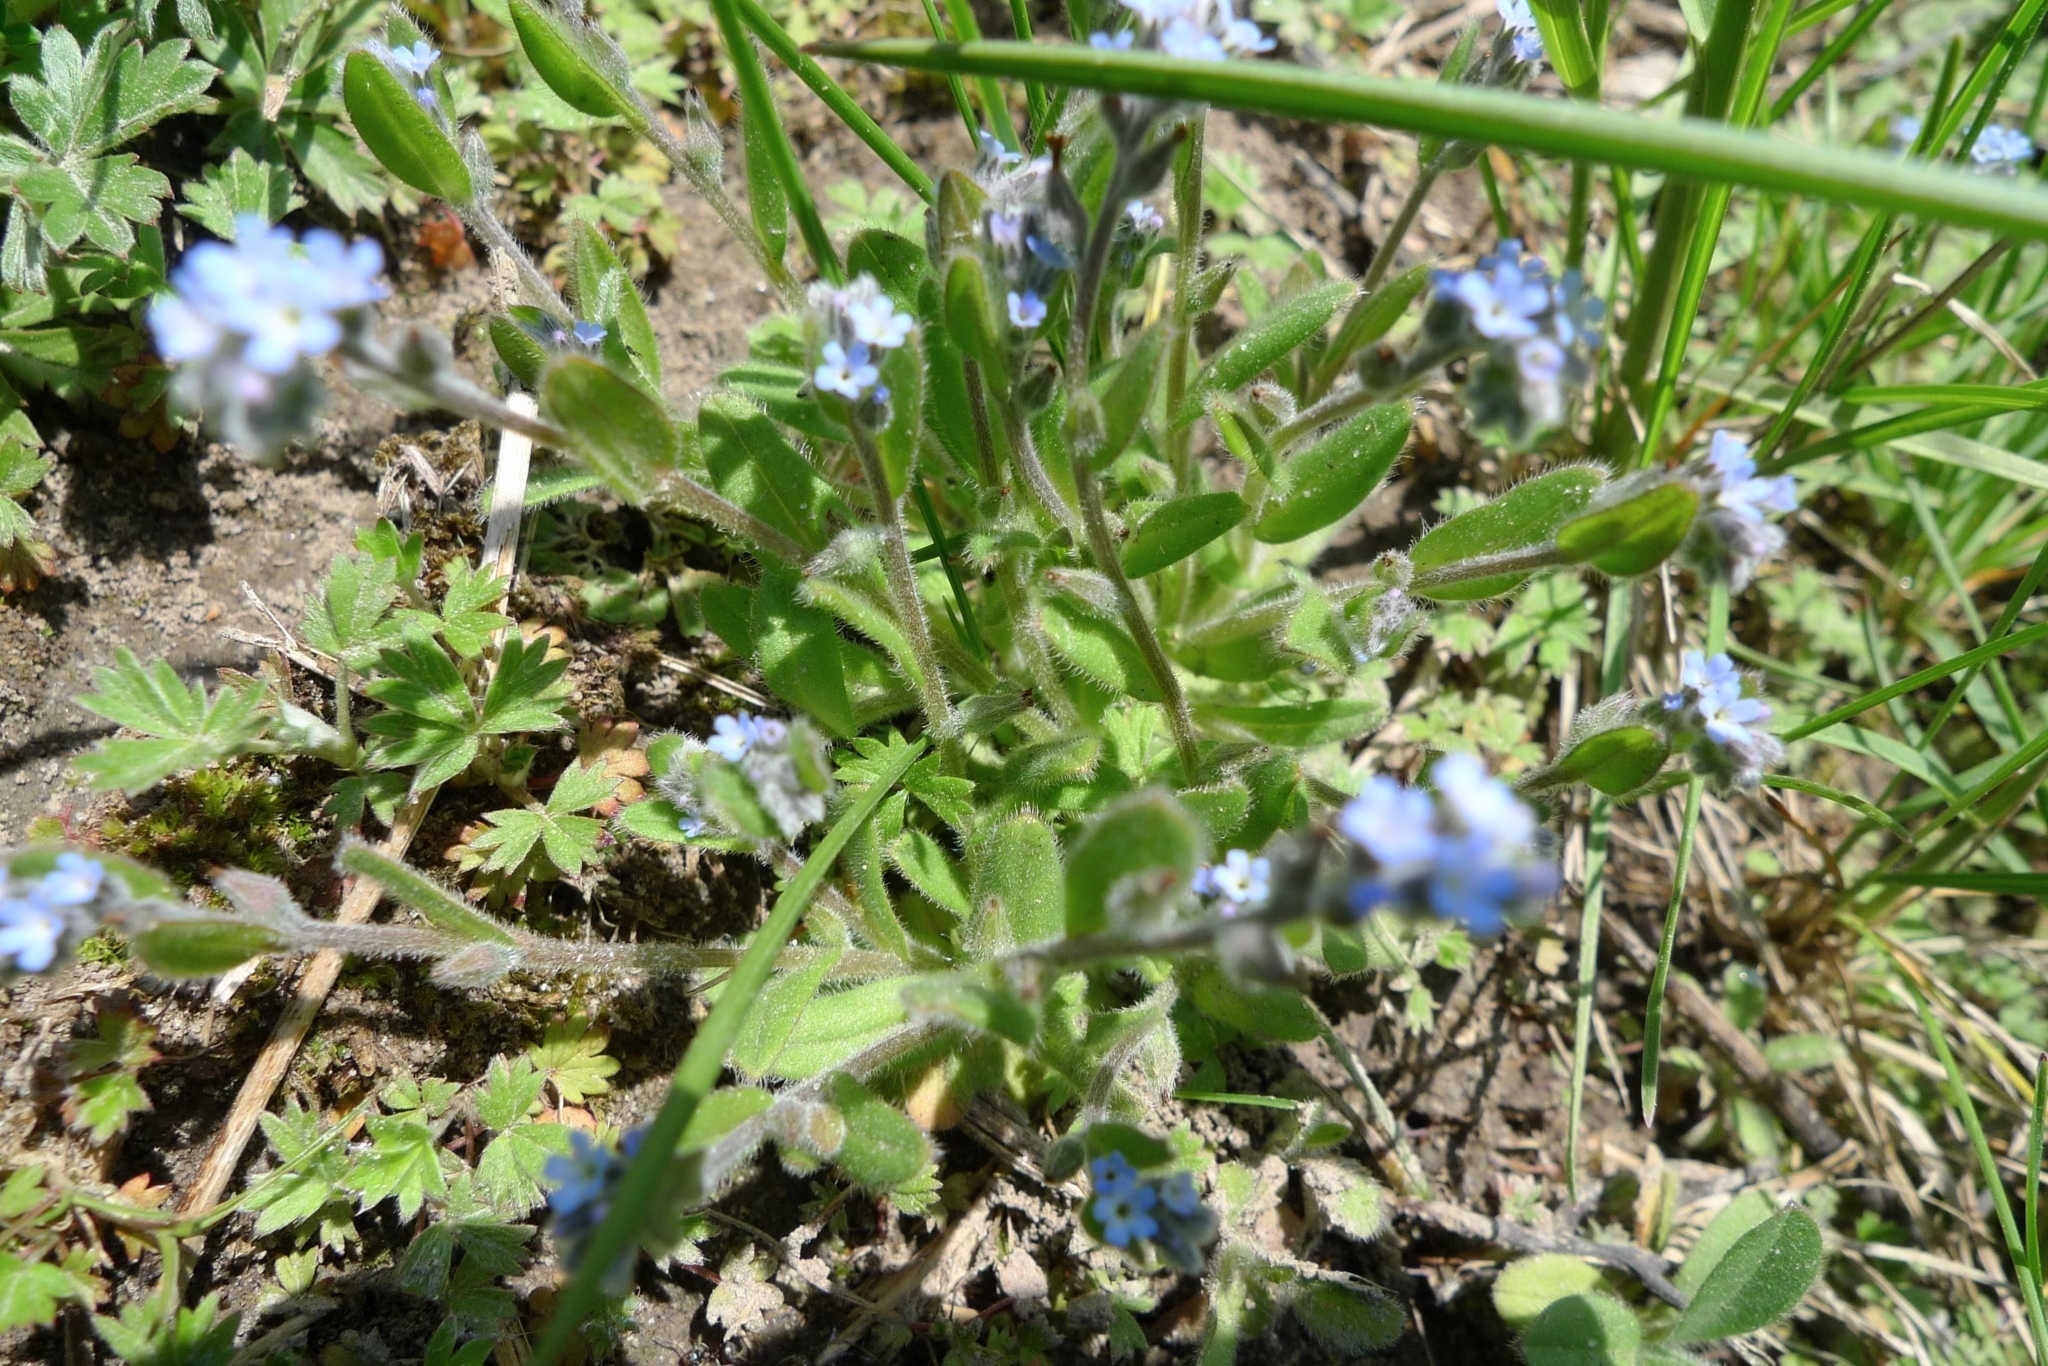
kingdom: Plantae
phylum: Tracheophyta
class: Magnoliopsida
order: Boraginales
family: Boraginaceae
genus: Myosotis
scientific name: Myosotis stricta
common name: Strict forget-me-not
